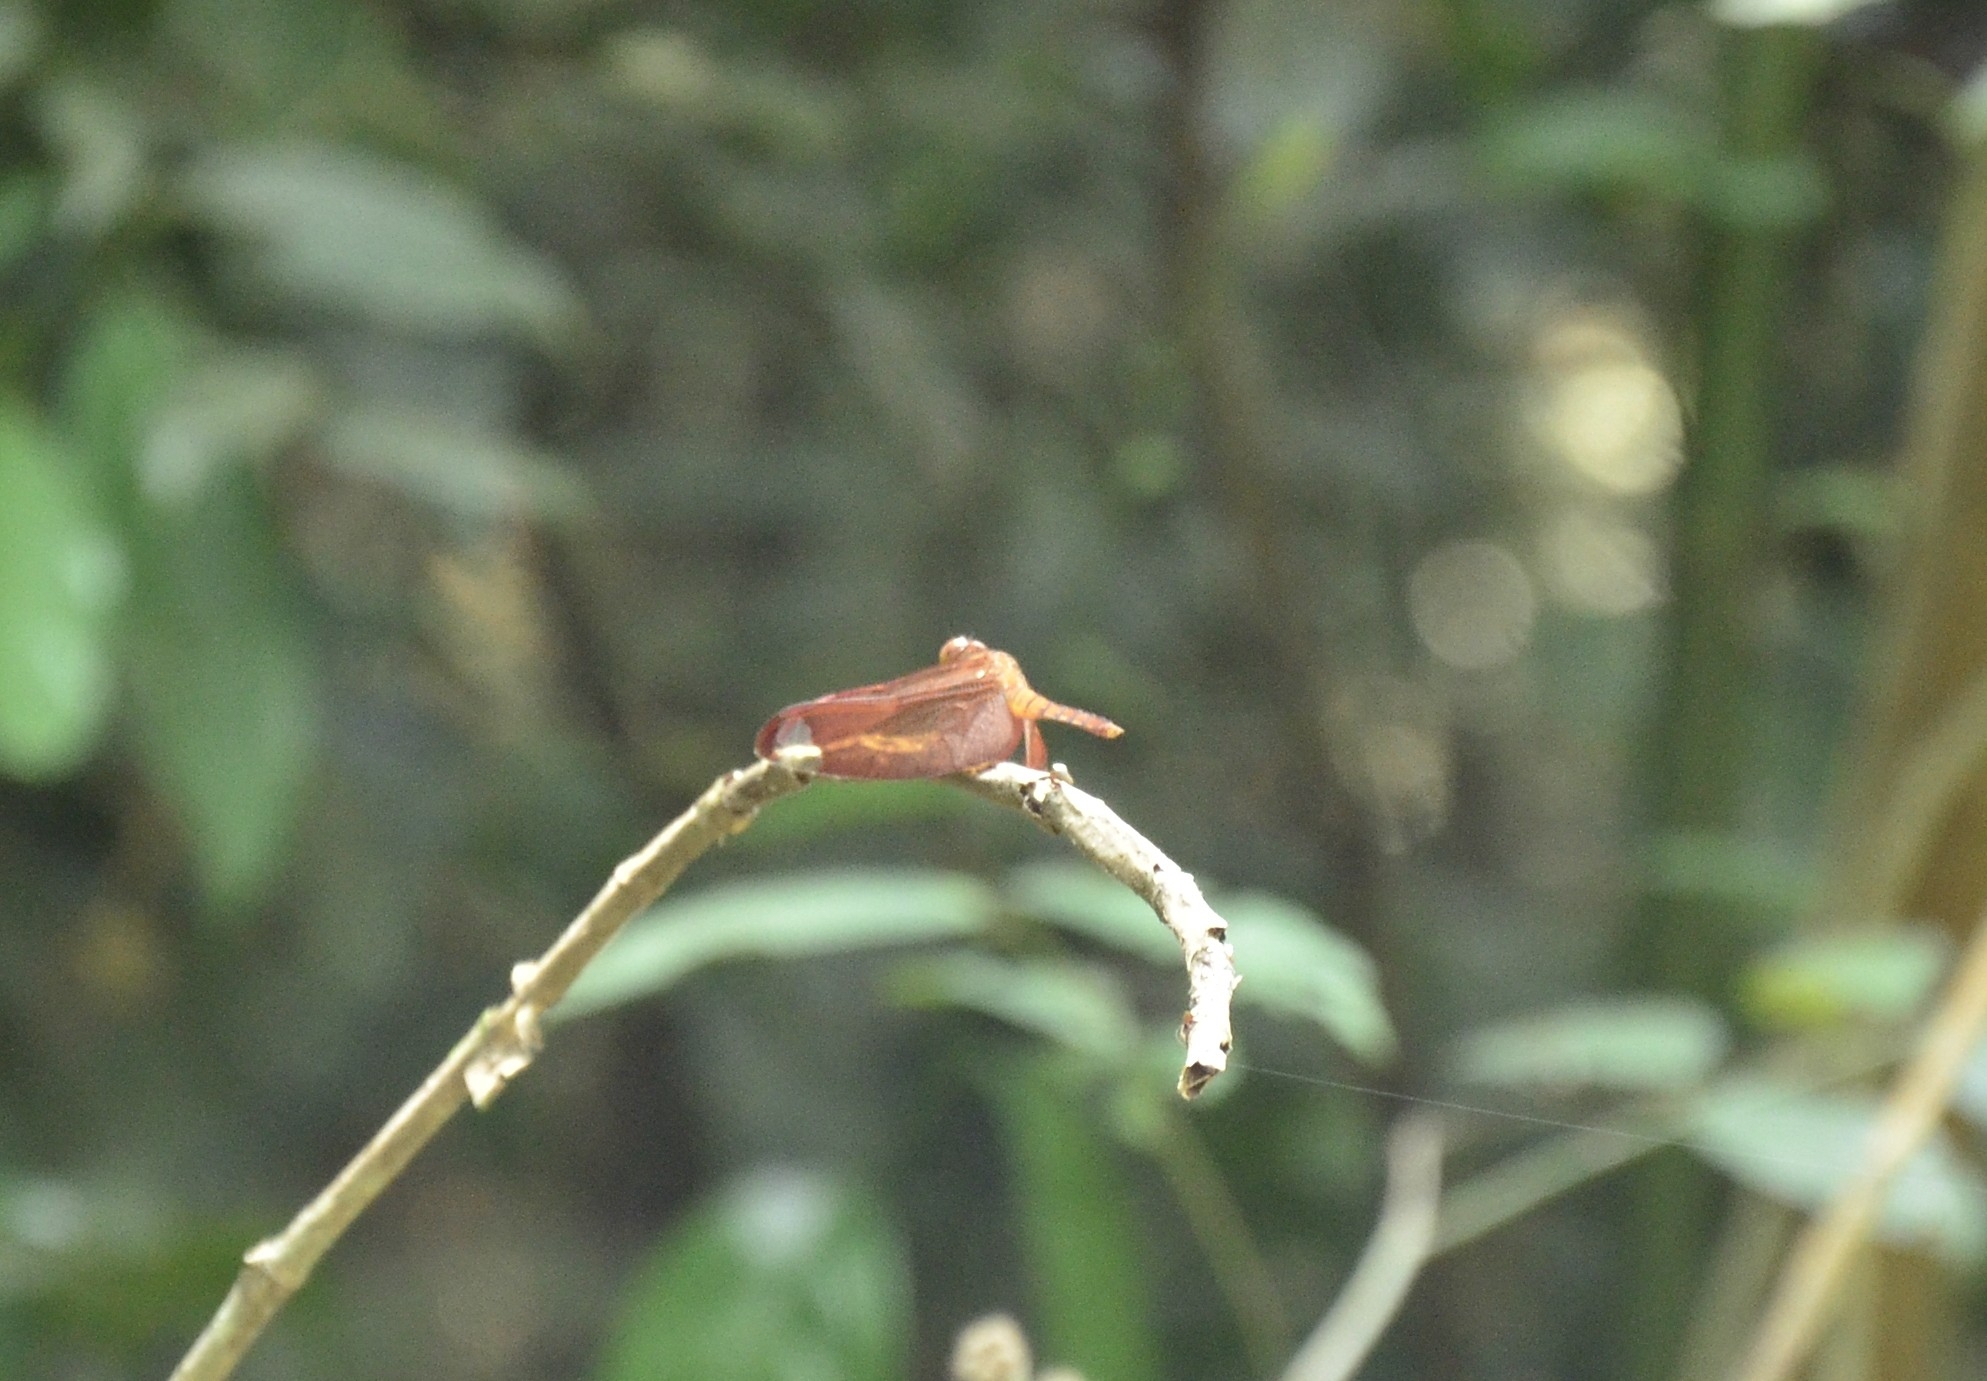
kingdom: Animalia
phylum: Arthropoda
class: Insecta
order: Odonata
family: Libellulidae
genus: Neurothemis
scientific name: Neurothemis fulvia
